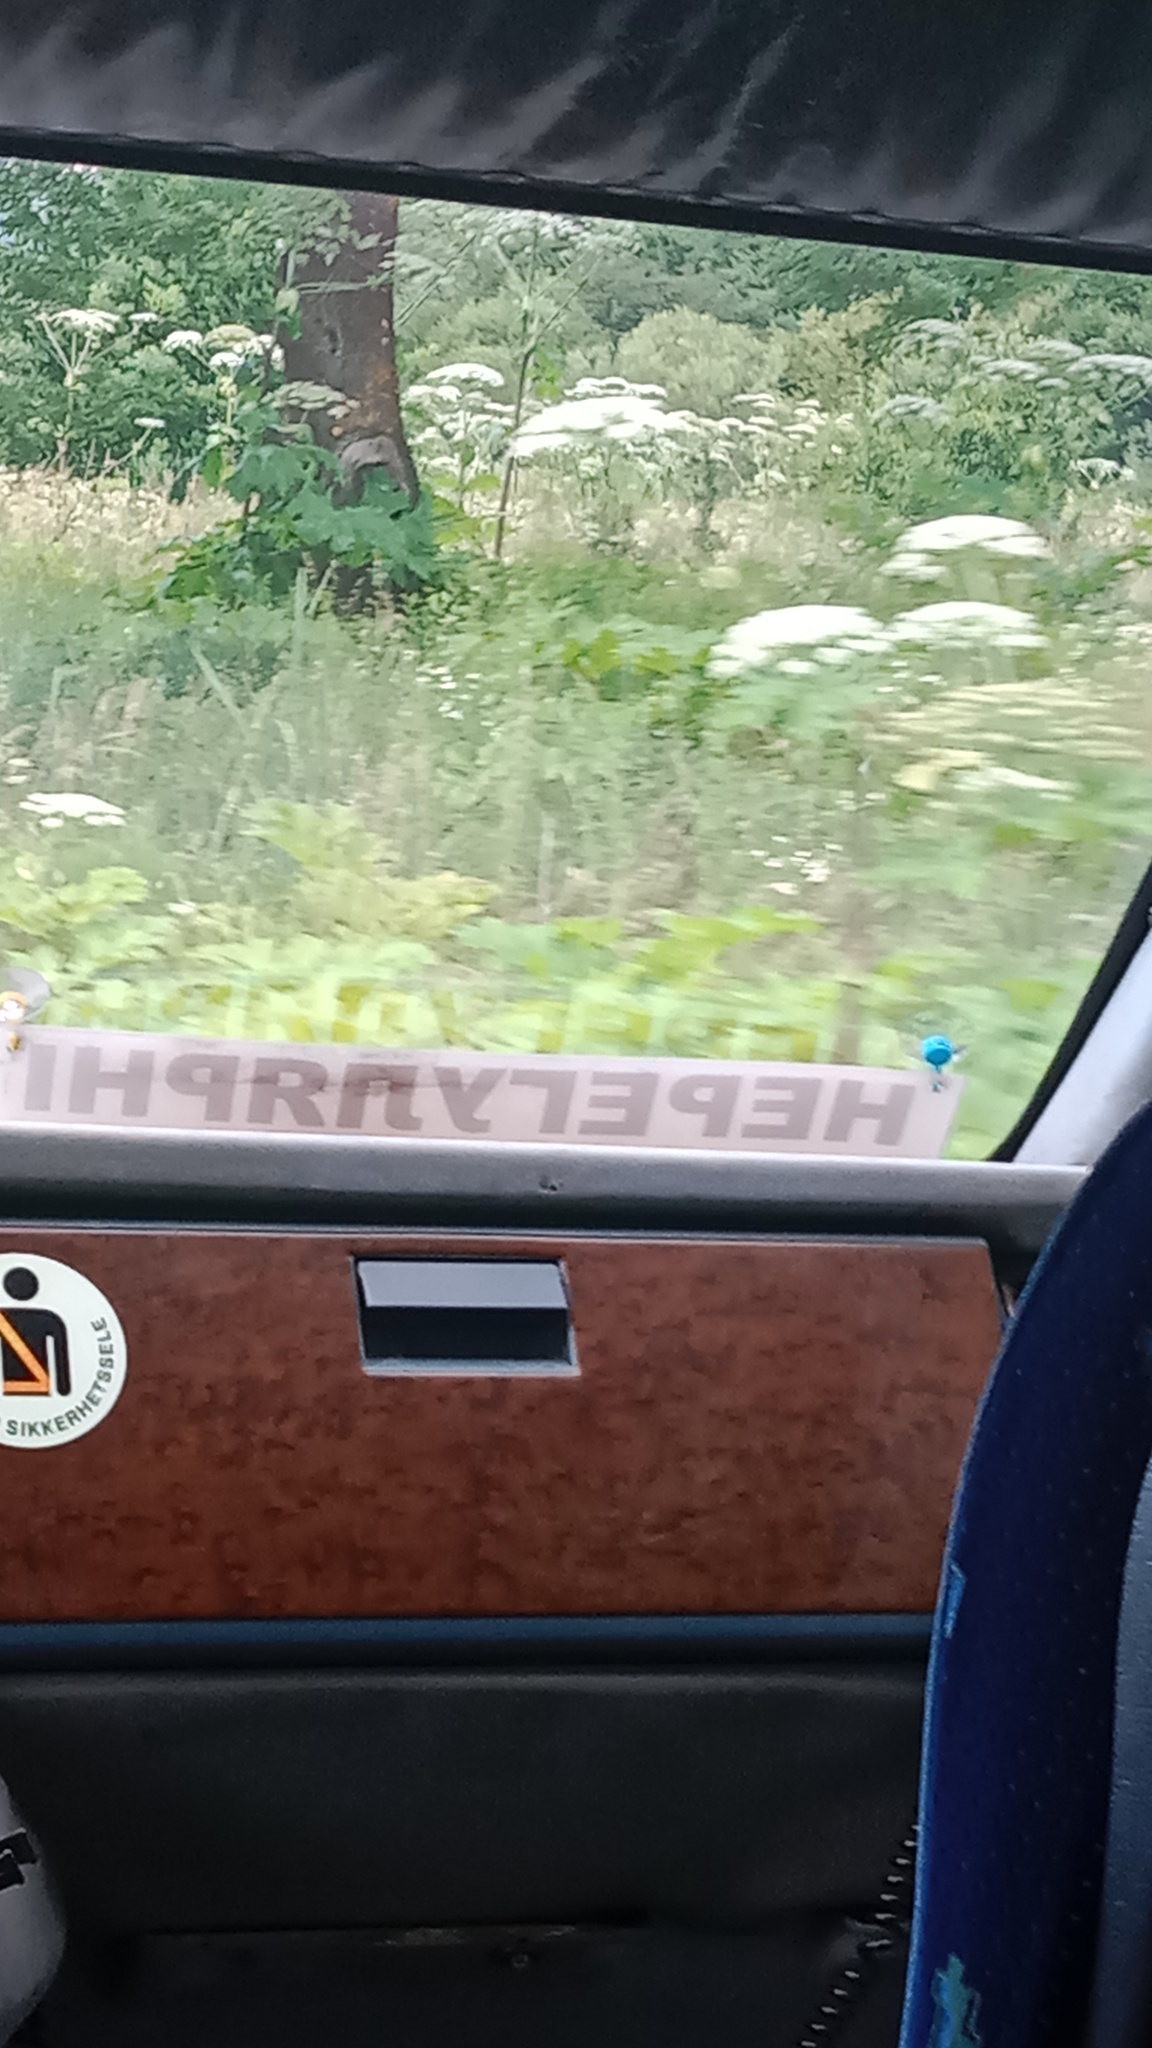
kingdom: Plantae
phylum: Tracheophyta
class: Magnoliopsida
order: Apiales
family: Apiaceae
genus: Heracleum
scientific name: Heracleum sosnowskyi
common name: Sosnowsky's hogweed
